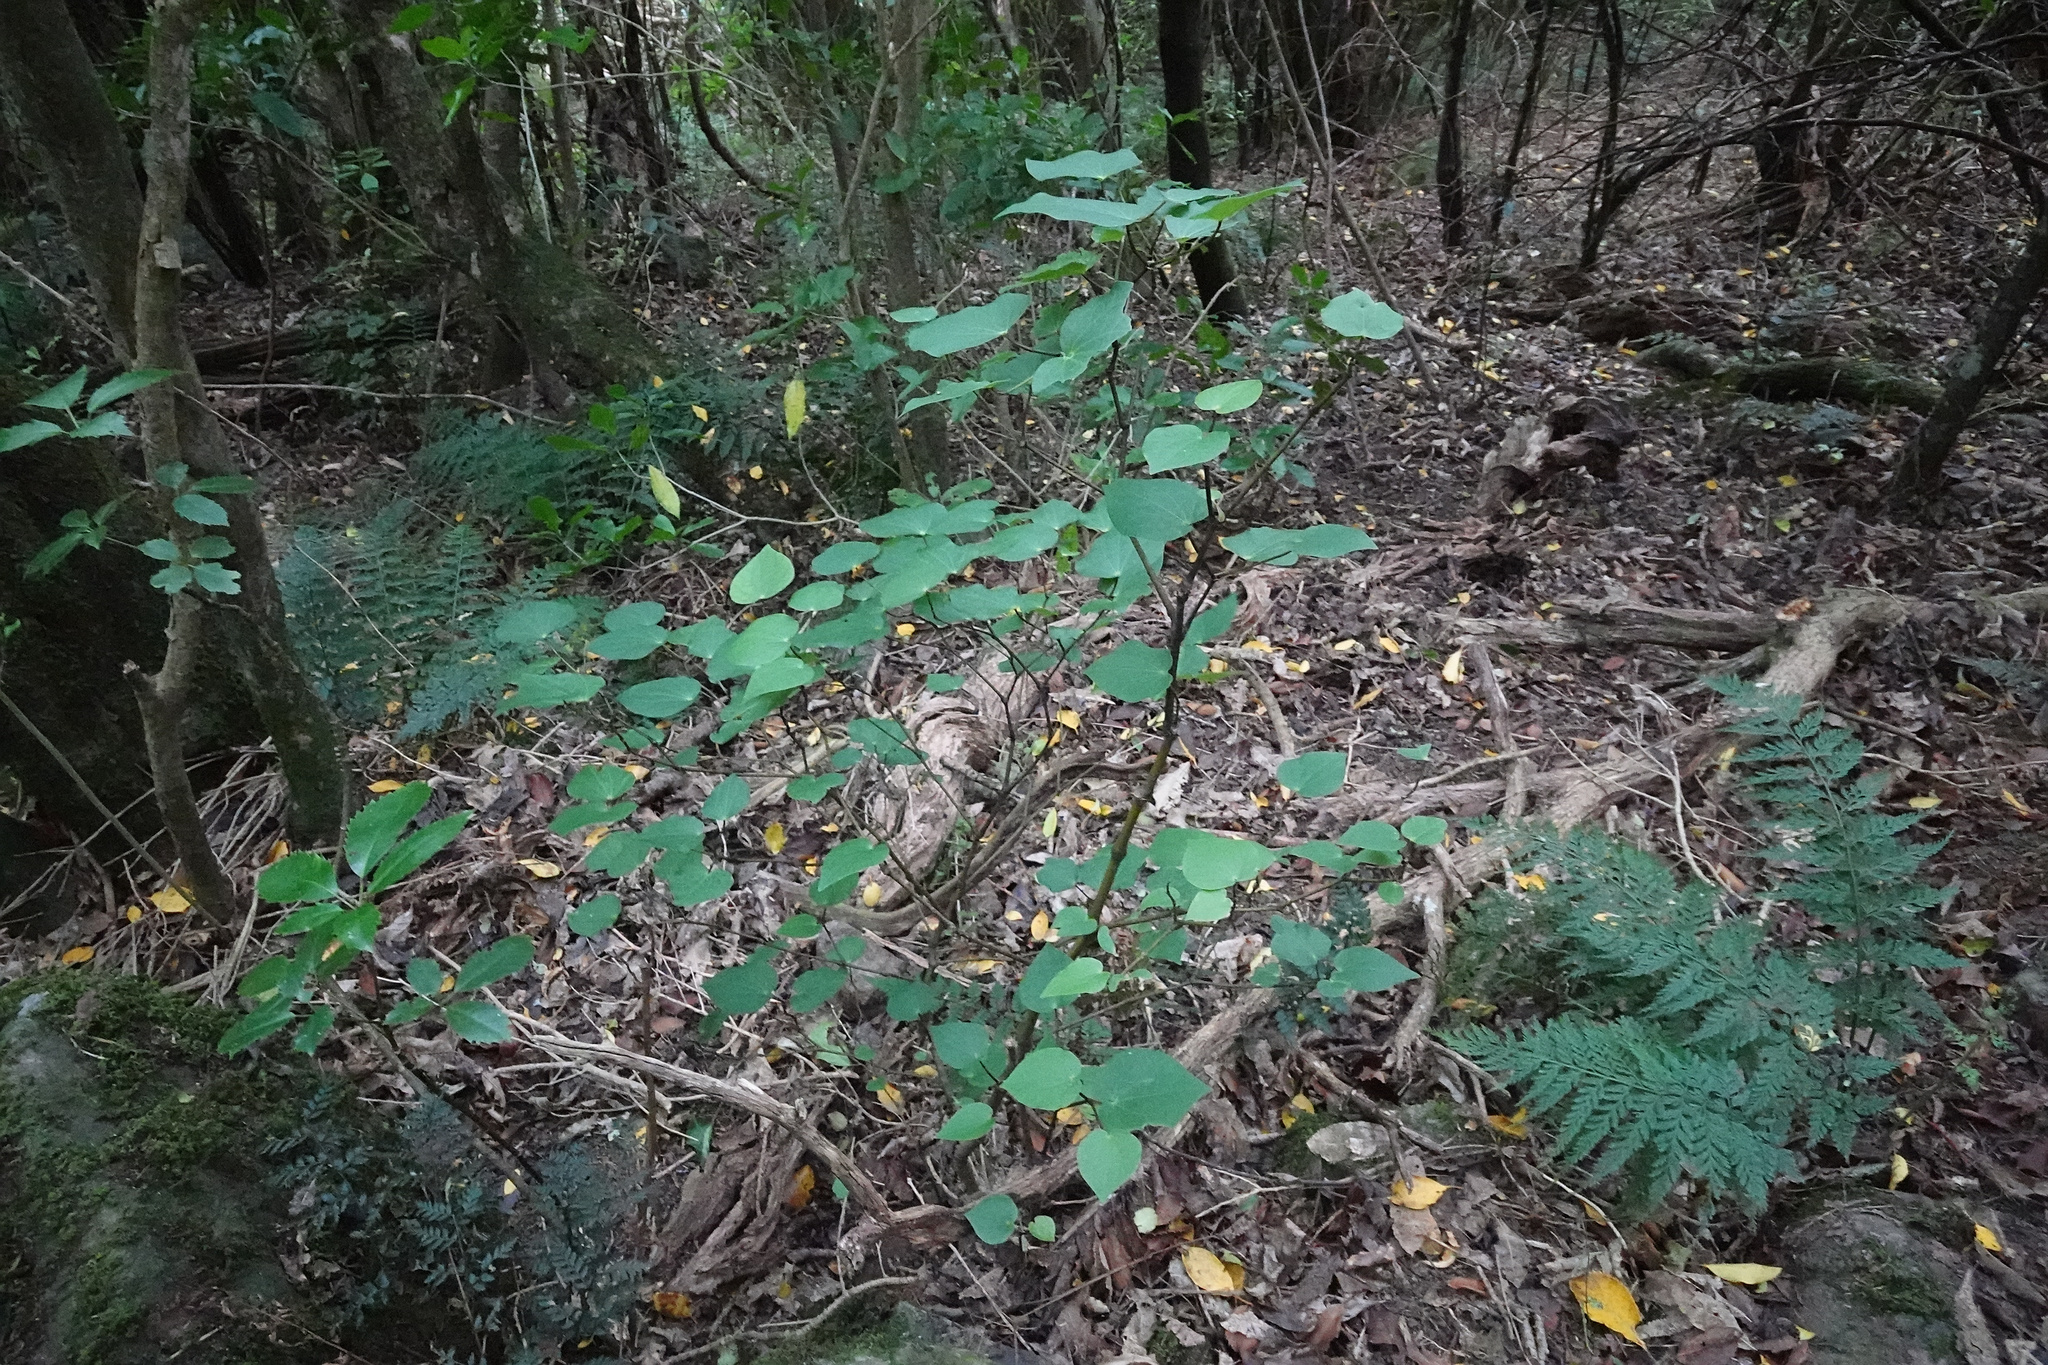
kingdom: Plantae
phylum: Tracheophyta
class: Magnoliopsida
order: Piperales
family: Piperaceae
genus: Macropiper
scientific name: Macropiper excelsum
